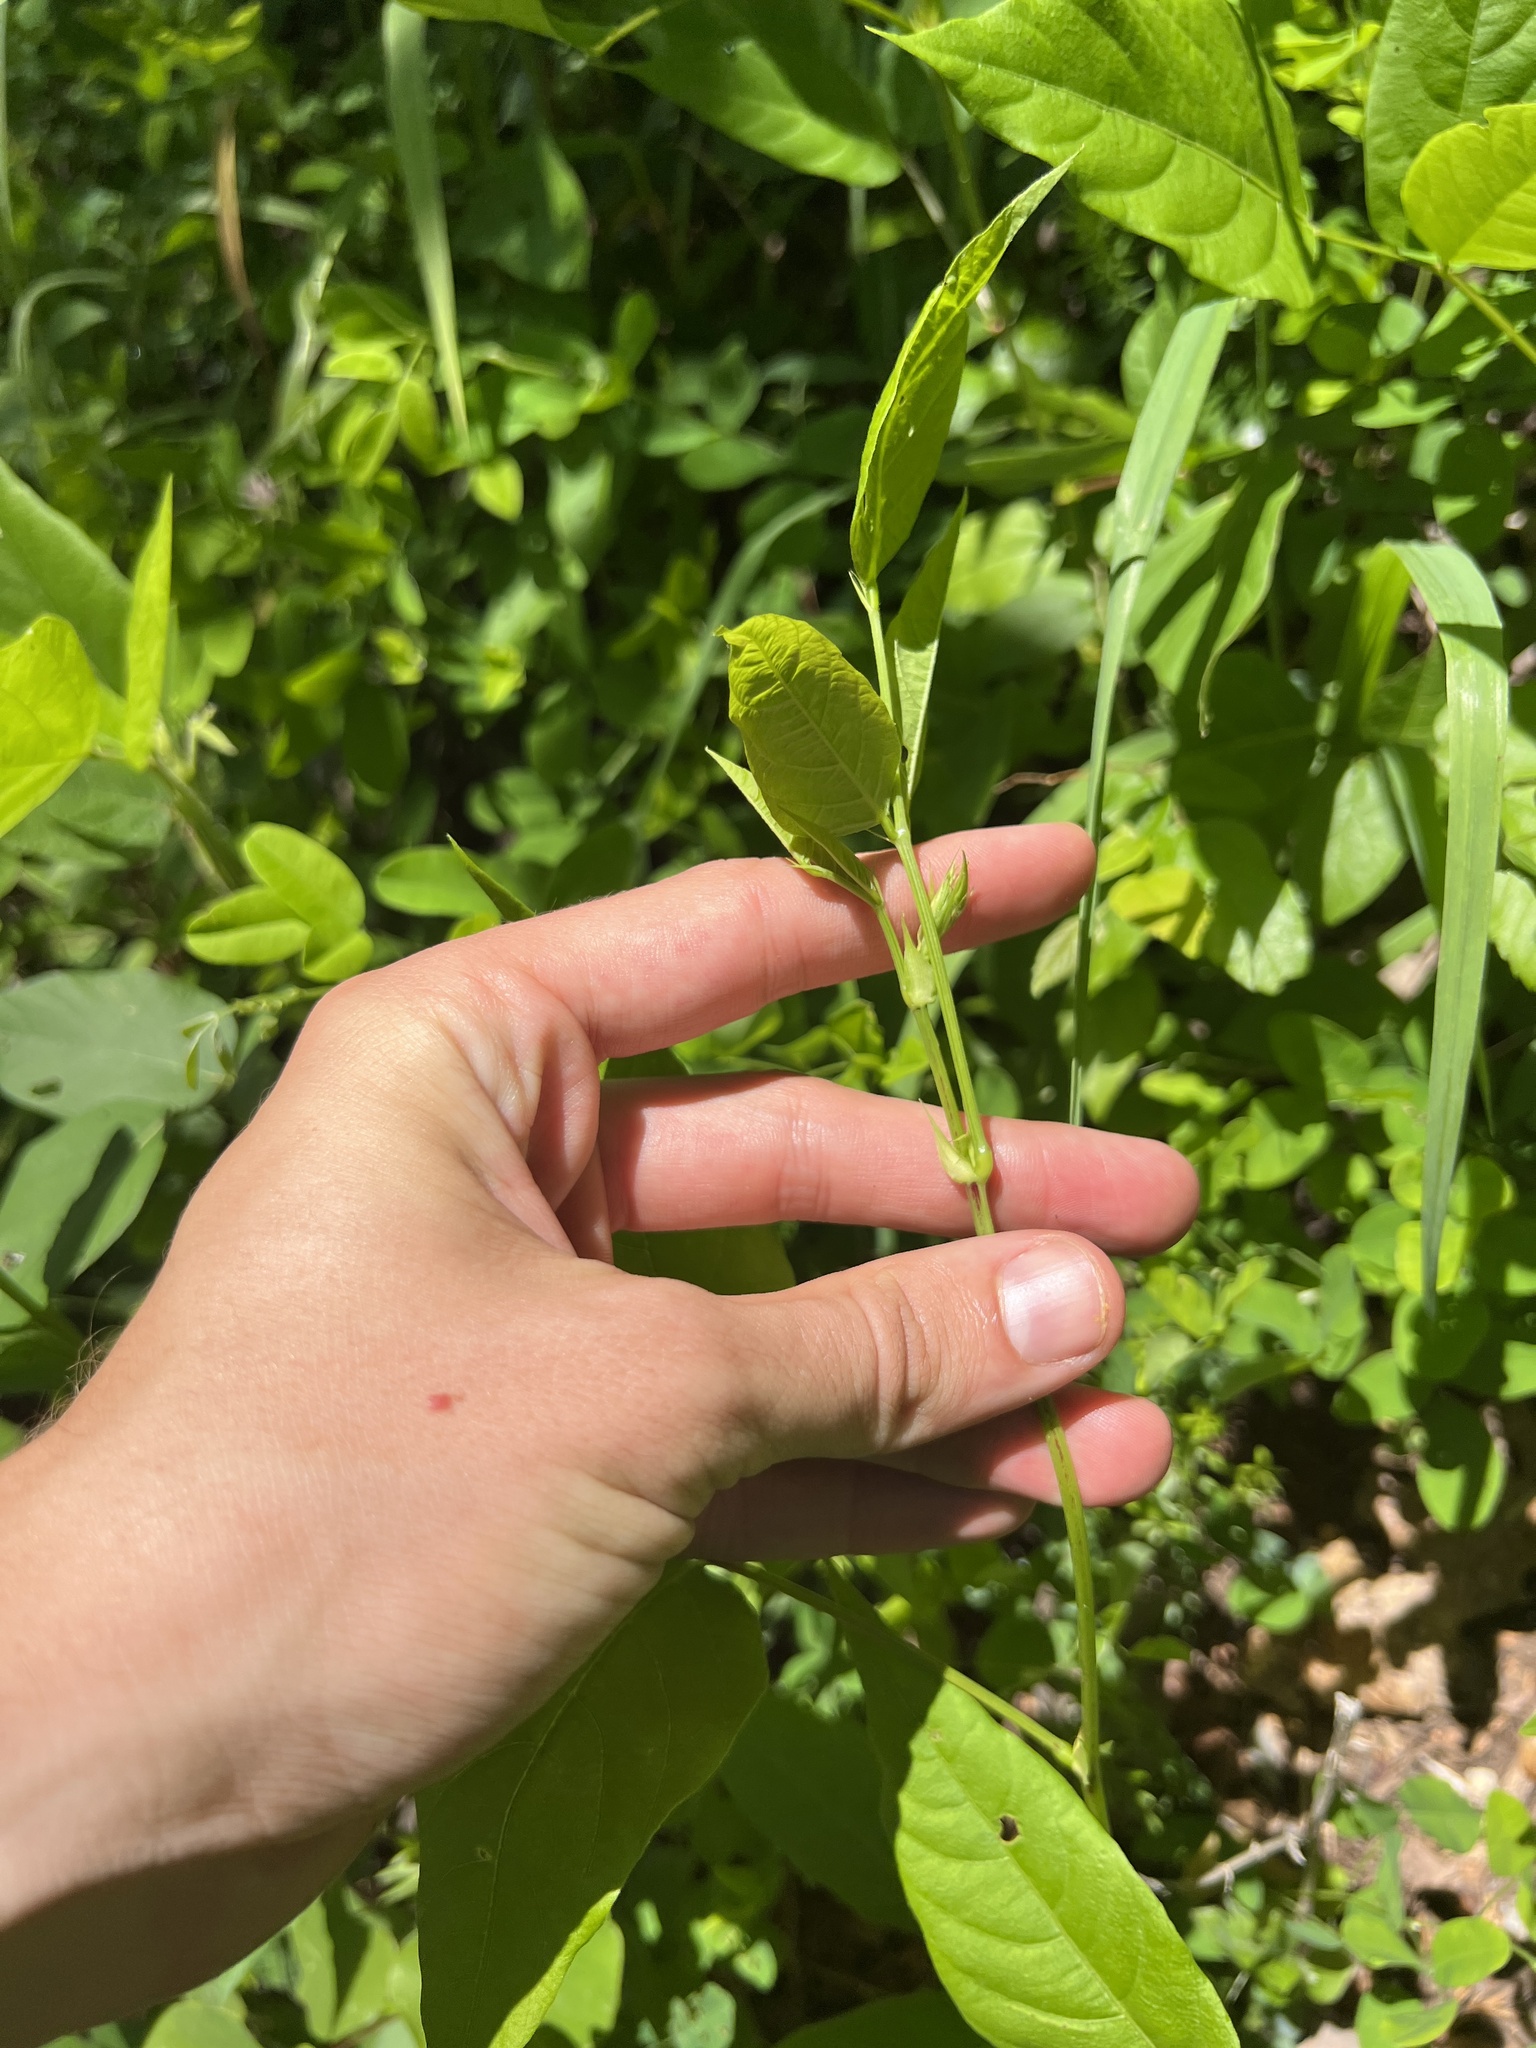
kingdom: Plantae
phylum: Tracheophyta
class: Magnoliopsida
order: Fabales
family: Fabaceae
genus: Desmodium
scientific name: Desmodium cuspidatum
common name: Big tick trefoil
